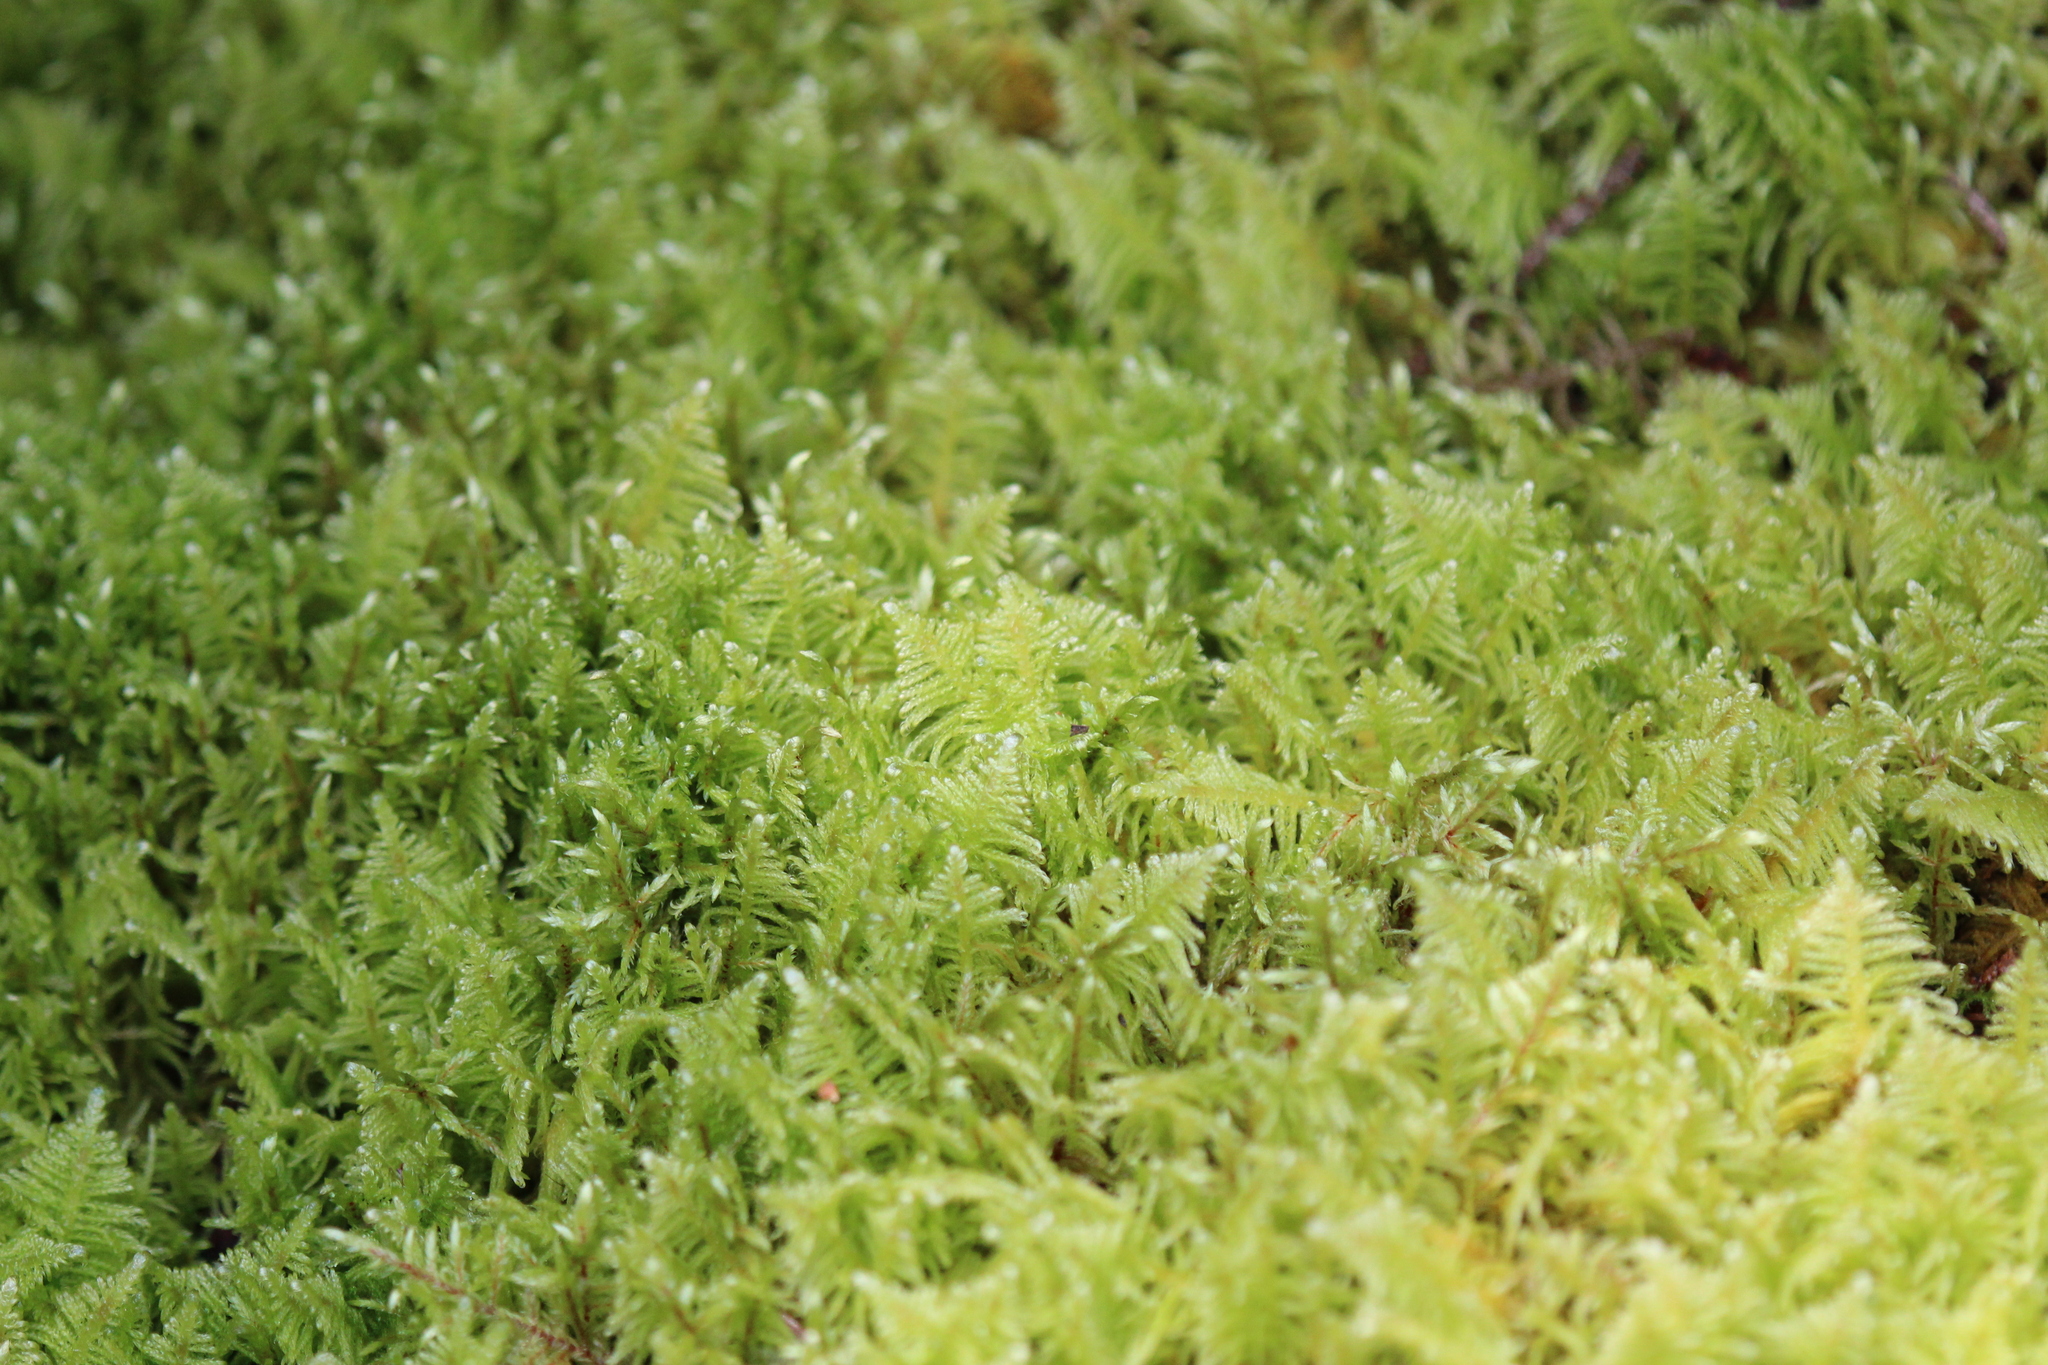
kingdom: Plantae
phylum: Bryophyta
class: Bryopsida
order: Hypnales
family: Pylaisiaceae
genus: Ptilium
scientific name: Ptilium crista-castrensis
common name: Knight's plume moss
